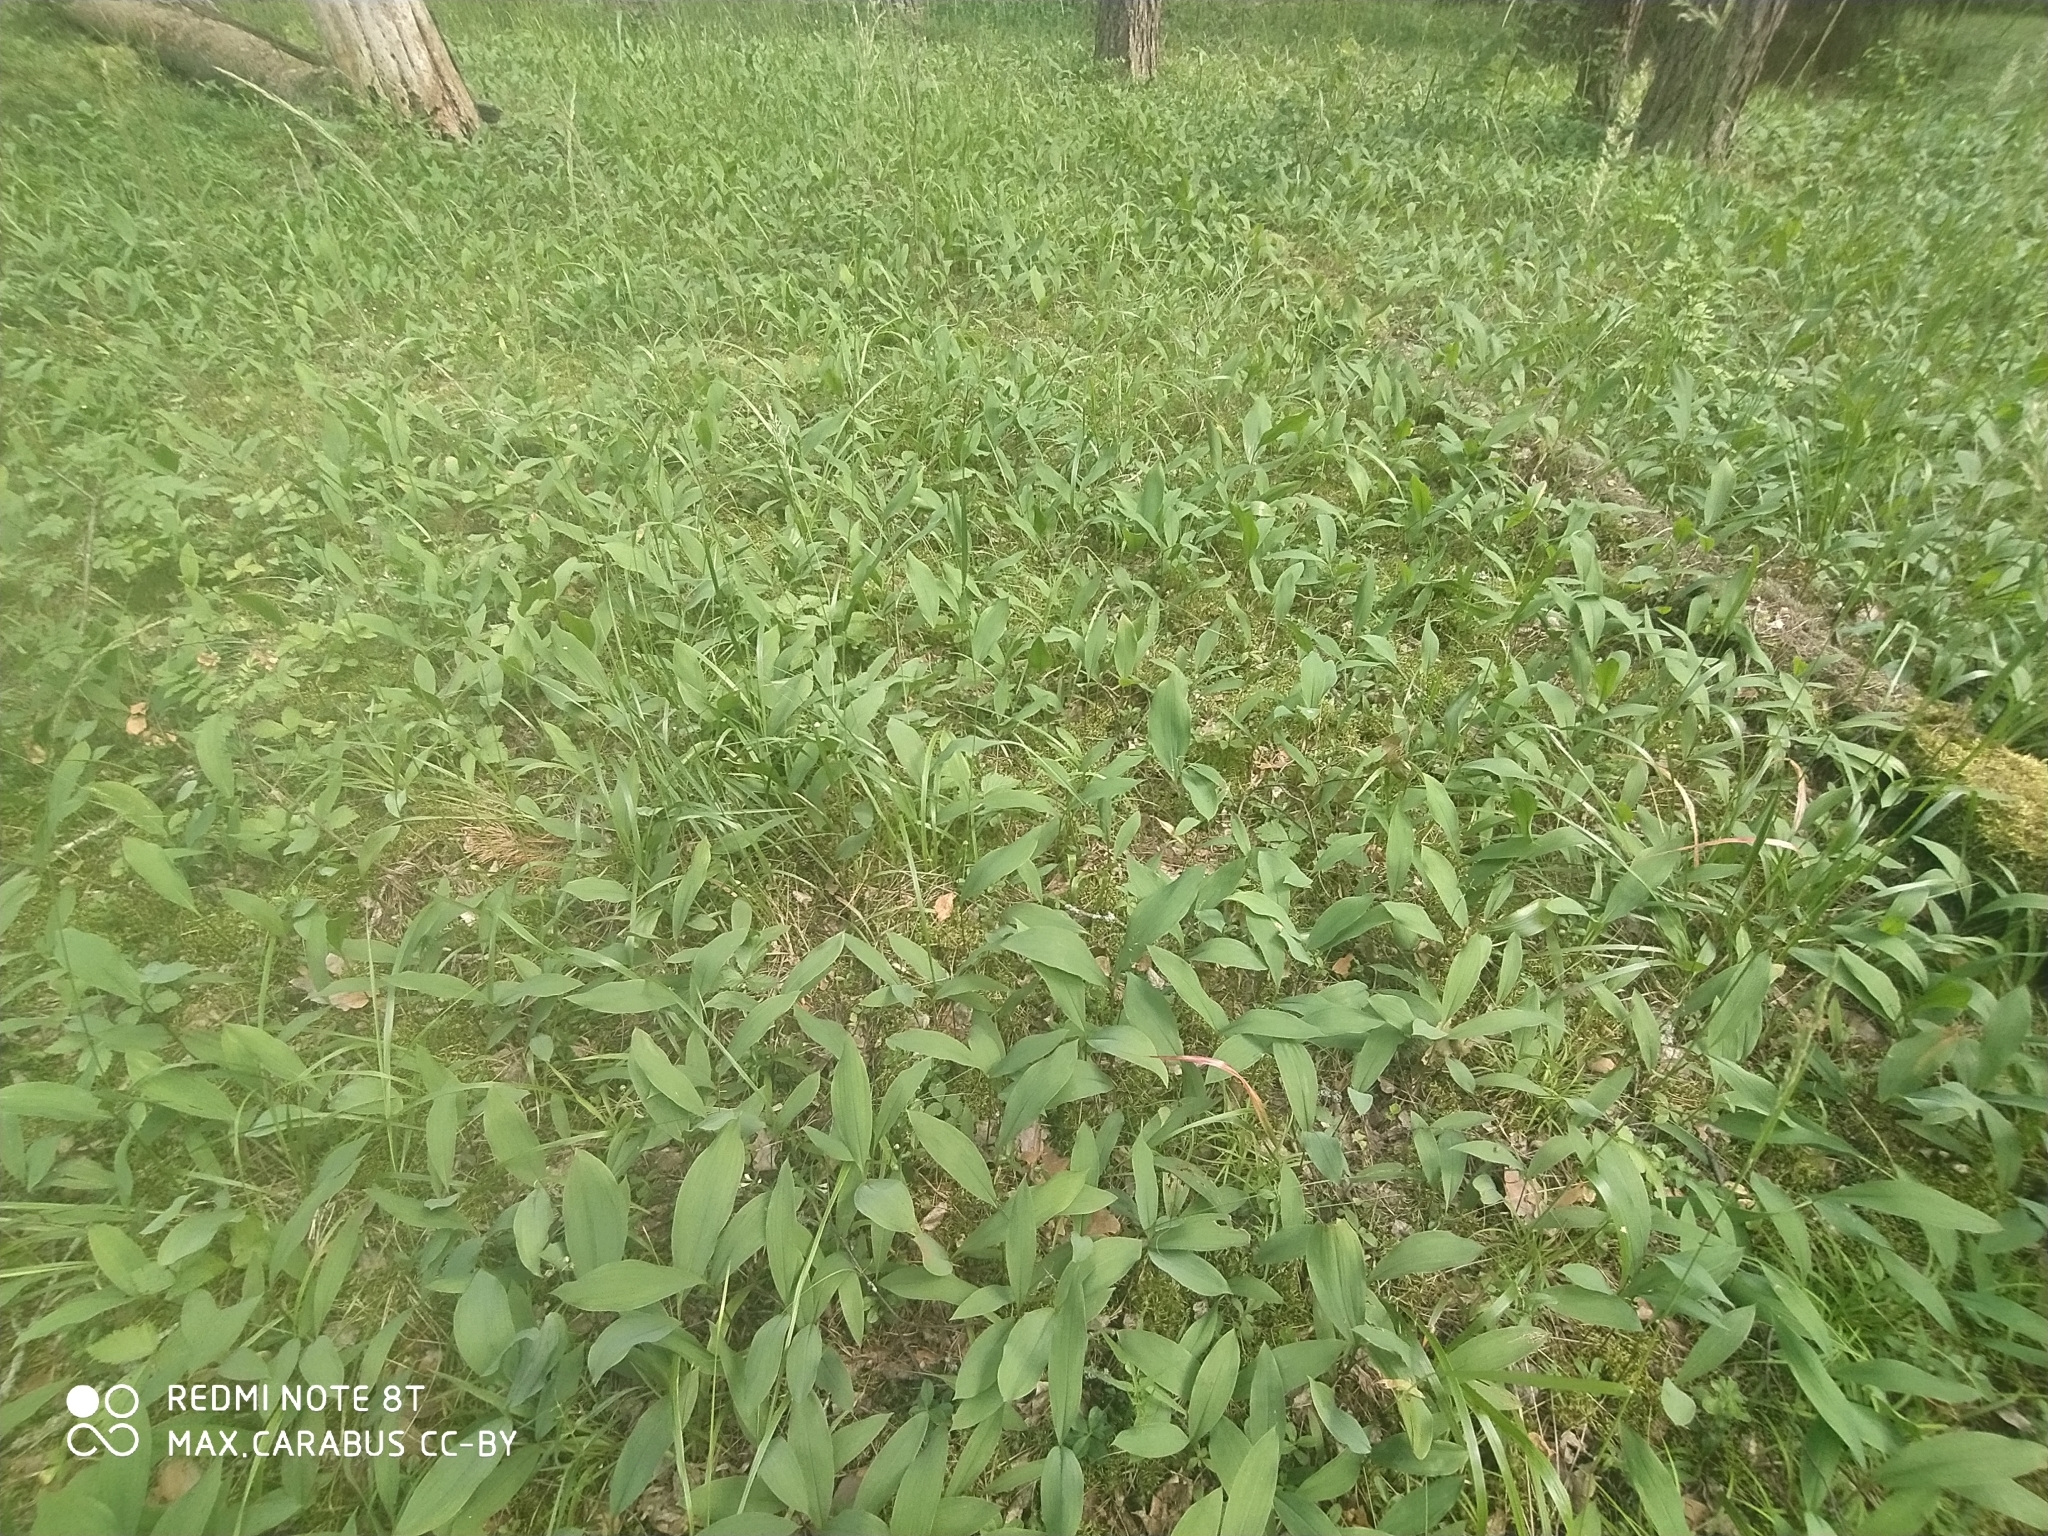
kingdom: Plantae
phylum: Tracheophyta
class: Liliopsida
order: Asparagales
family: Asparagaceae
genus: Convallaria
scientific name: Convallaria majalis
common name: Lily-of-the-valley
